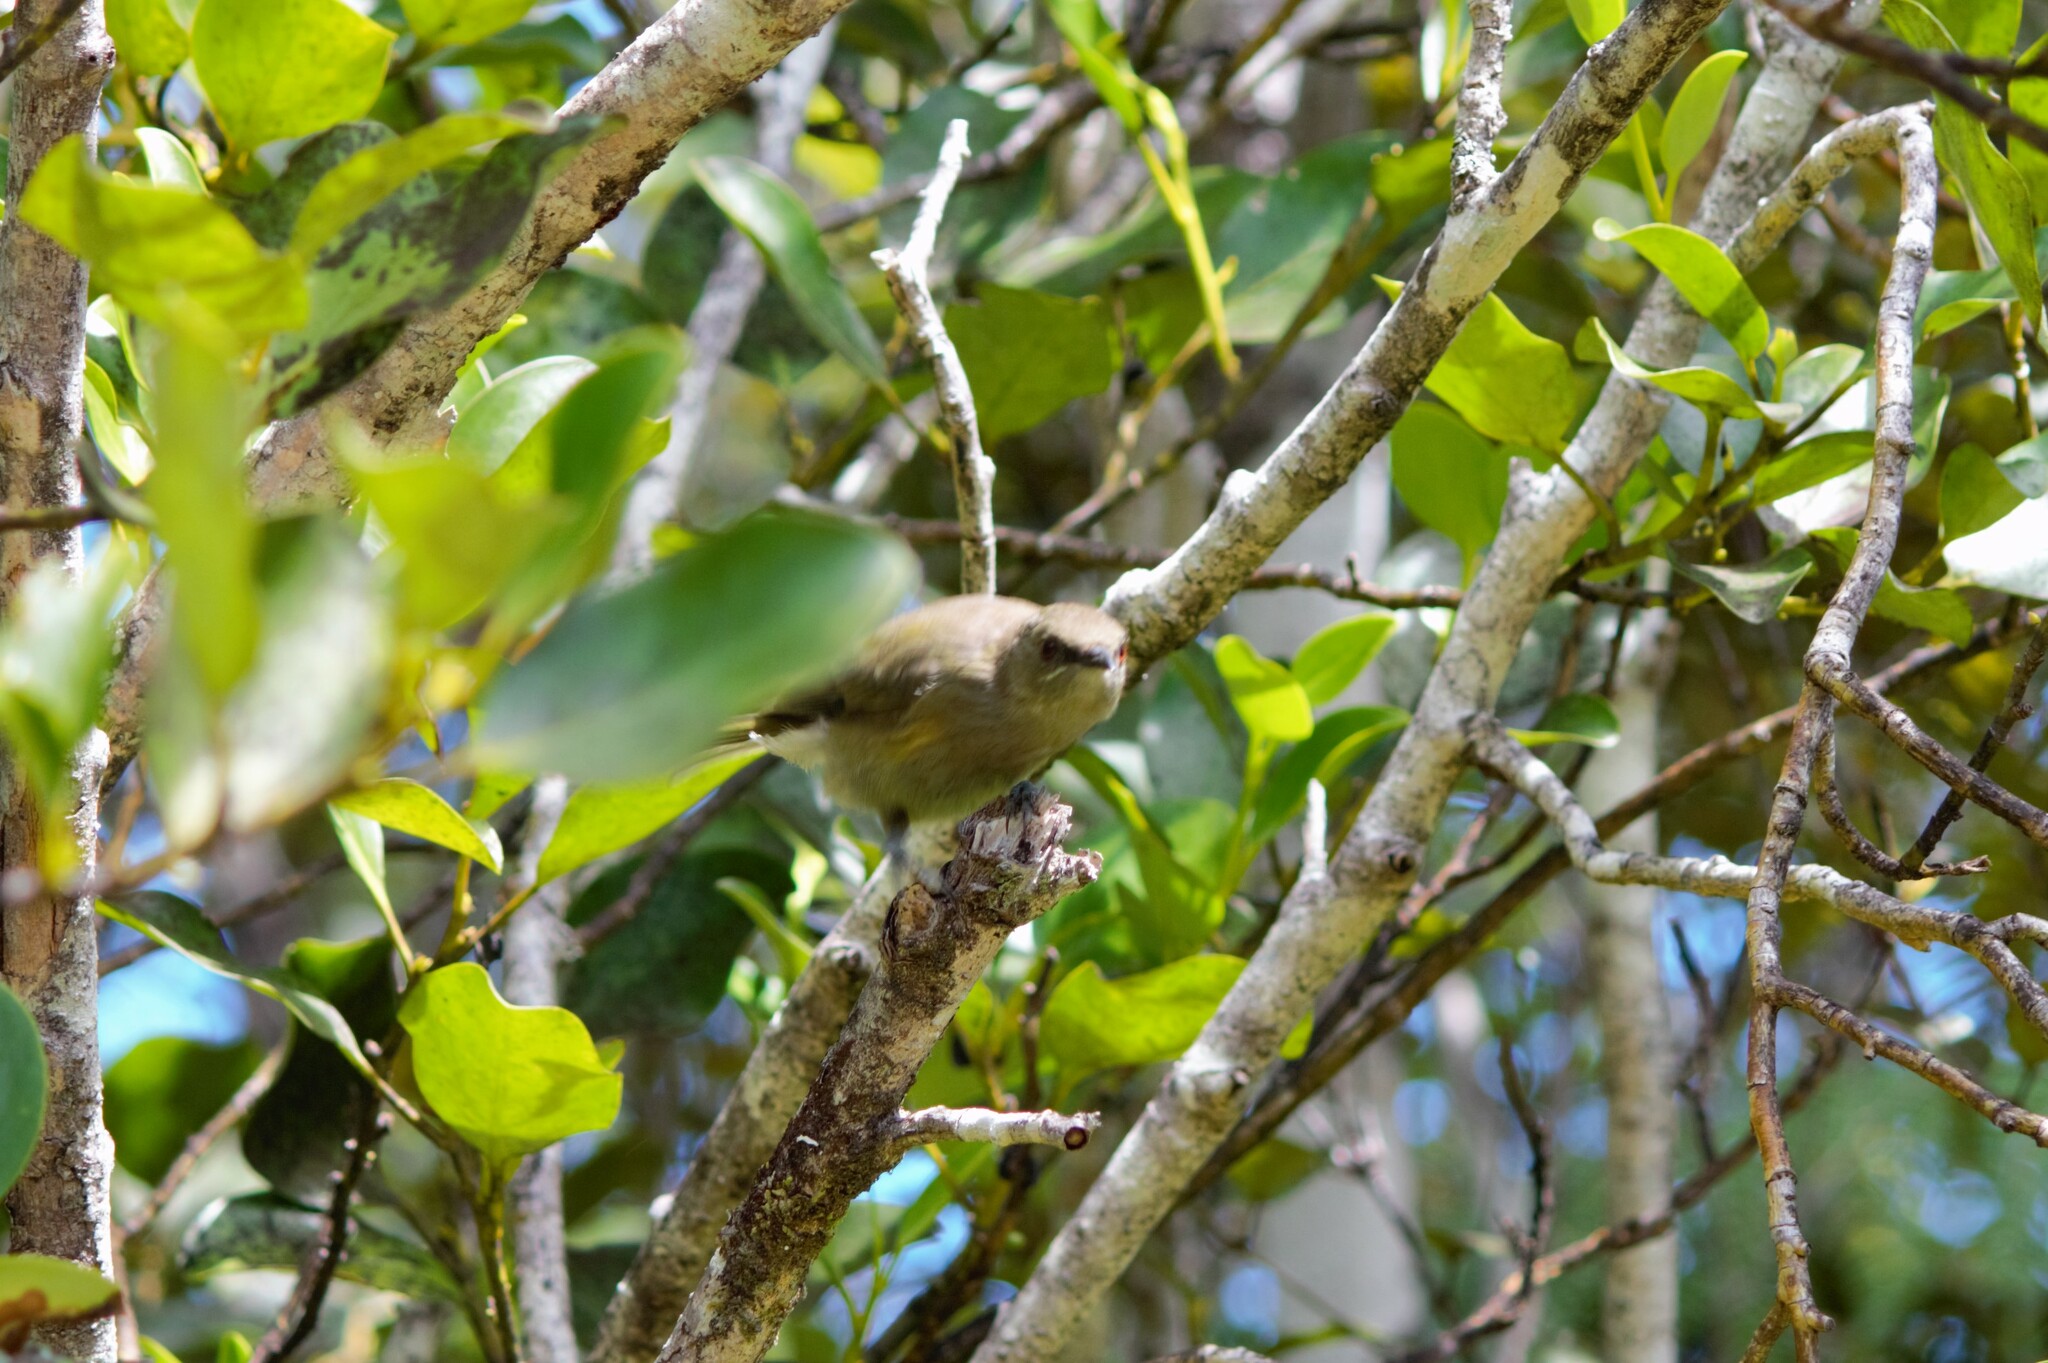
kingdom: Animalia
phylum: Chordata
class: Aves
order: Passeriformes
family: Meliphagidae
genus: Anthornis
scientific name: Anthornis melanura
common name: New zealand bellbird
